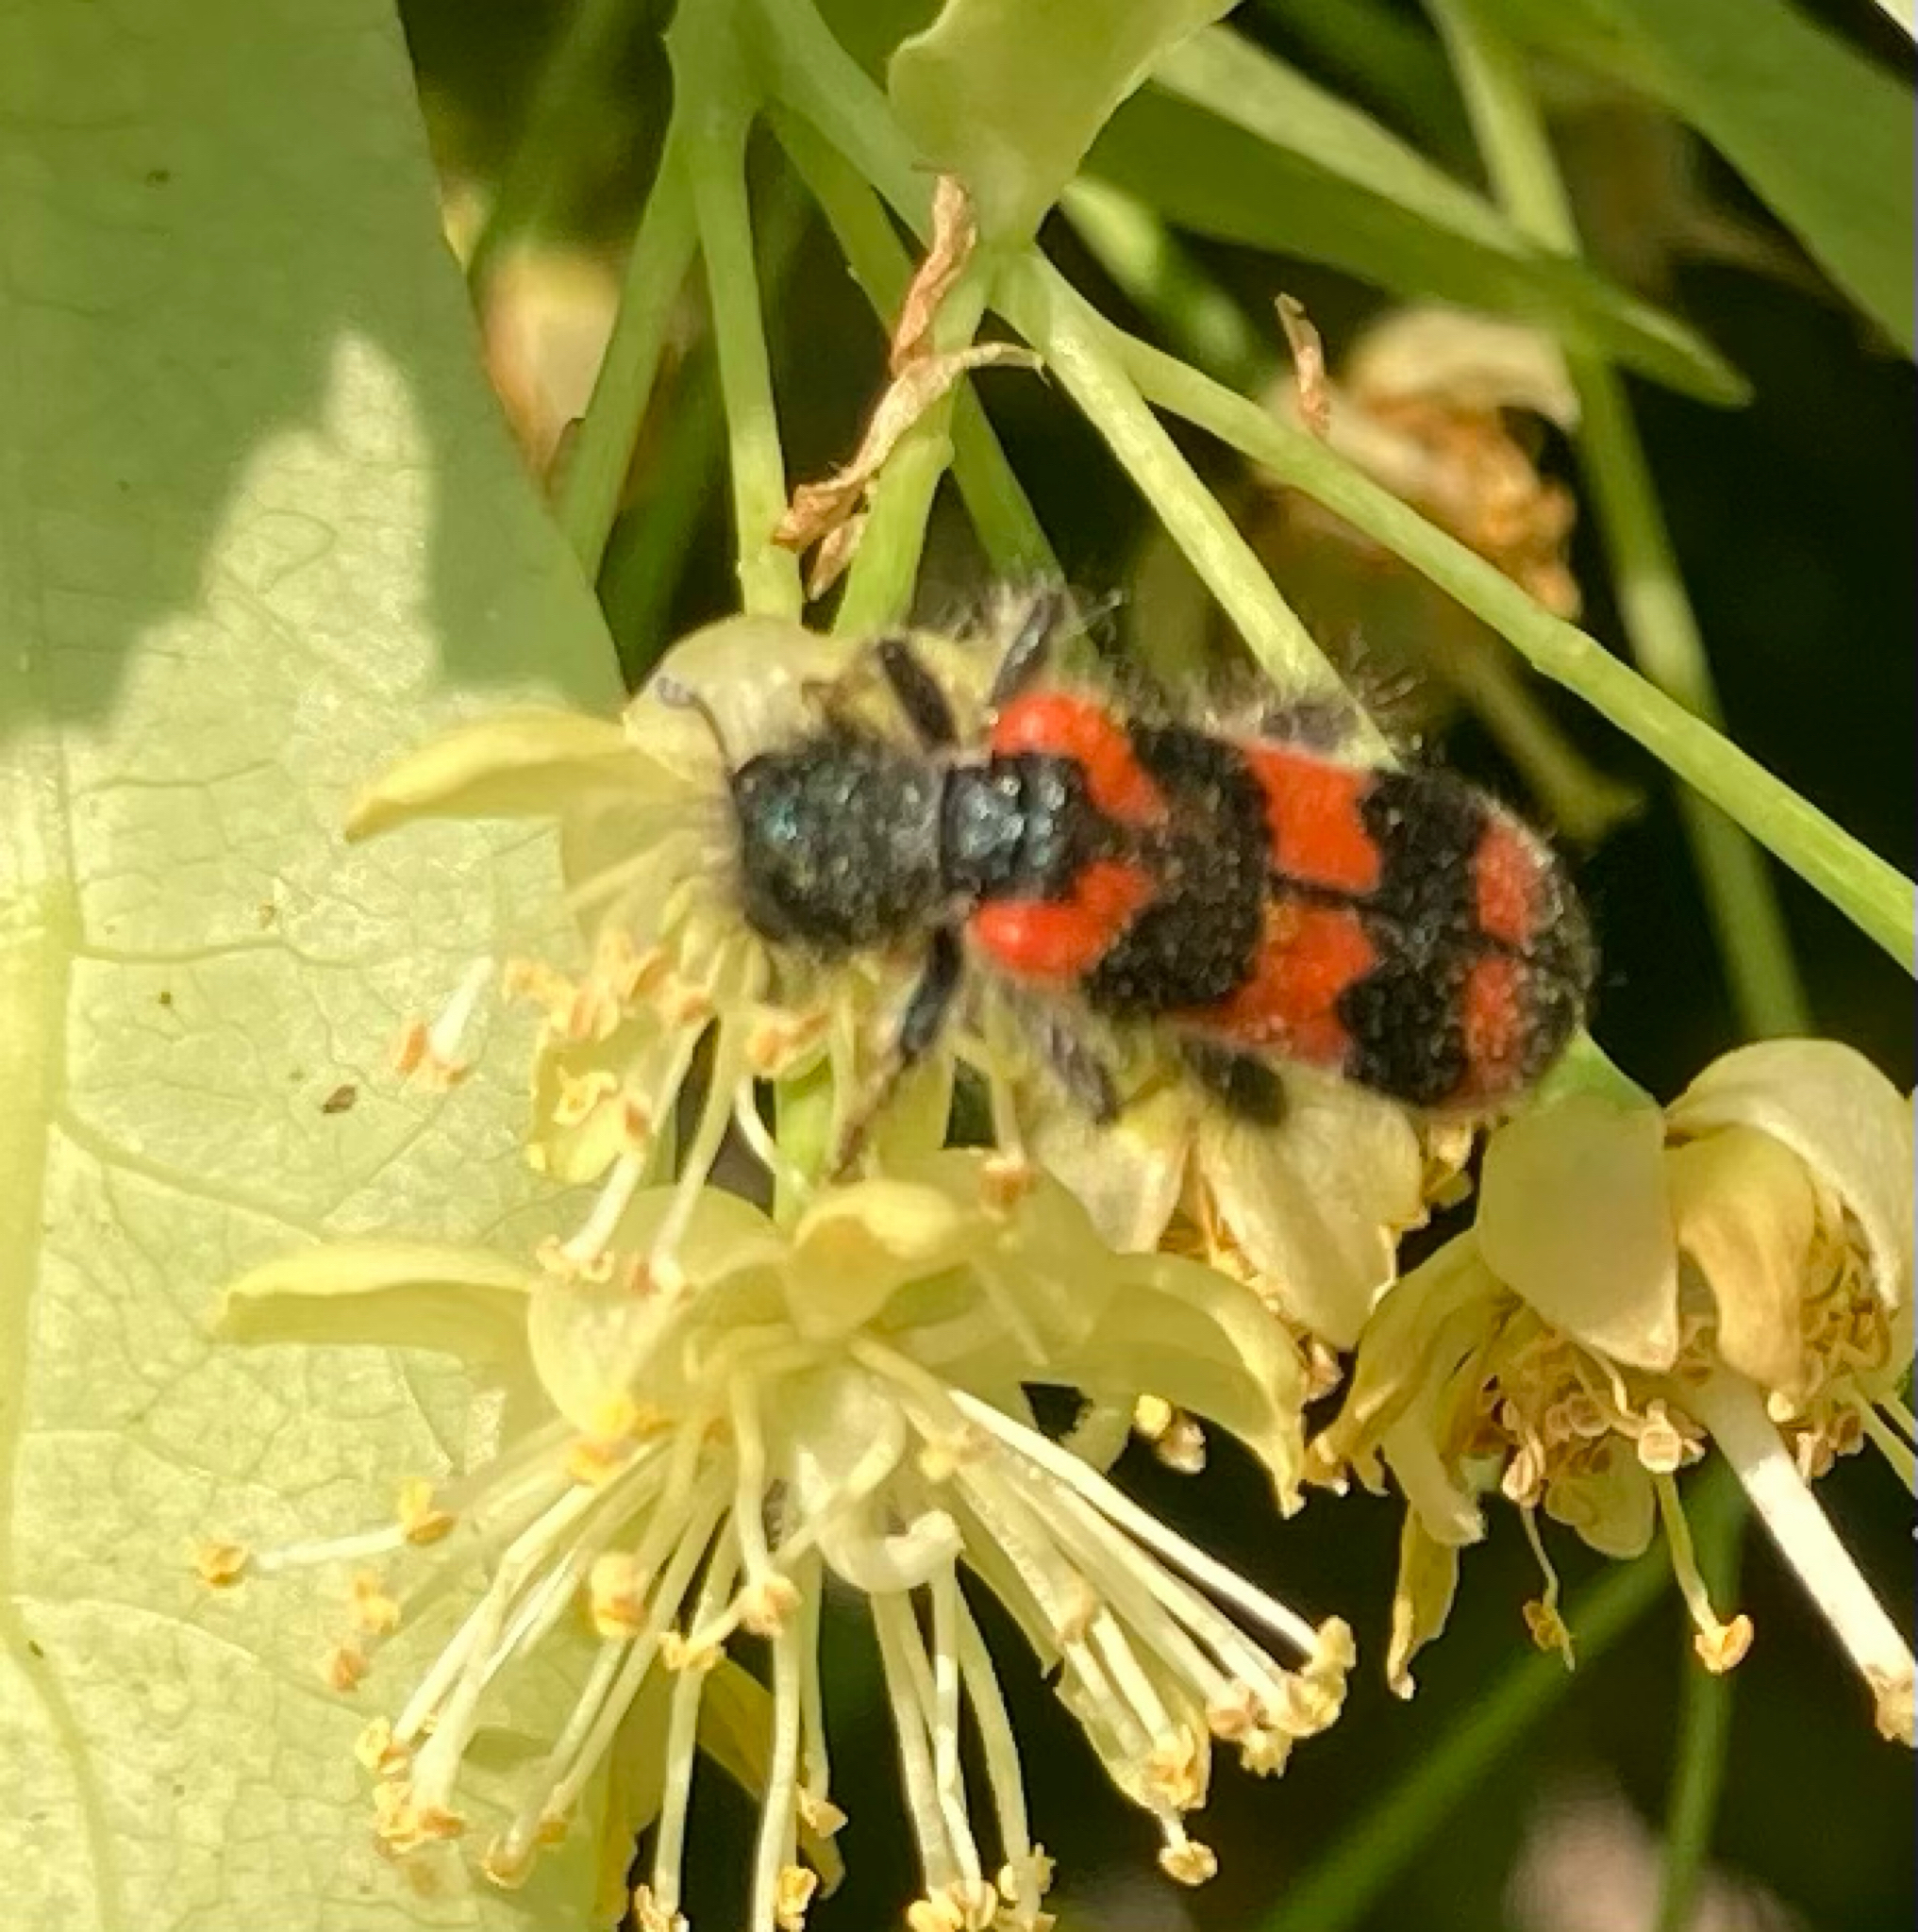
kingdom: Animalia
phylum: Arthropoda
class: Insecta
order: Coleoptera
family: Cleridae
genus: Trichodes
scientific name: Trichodes alvearius
